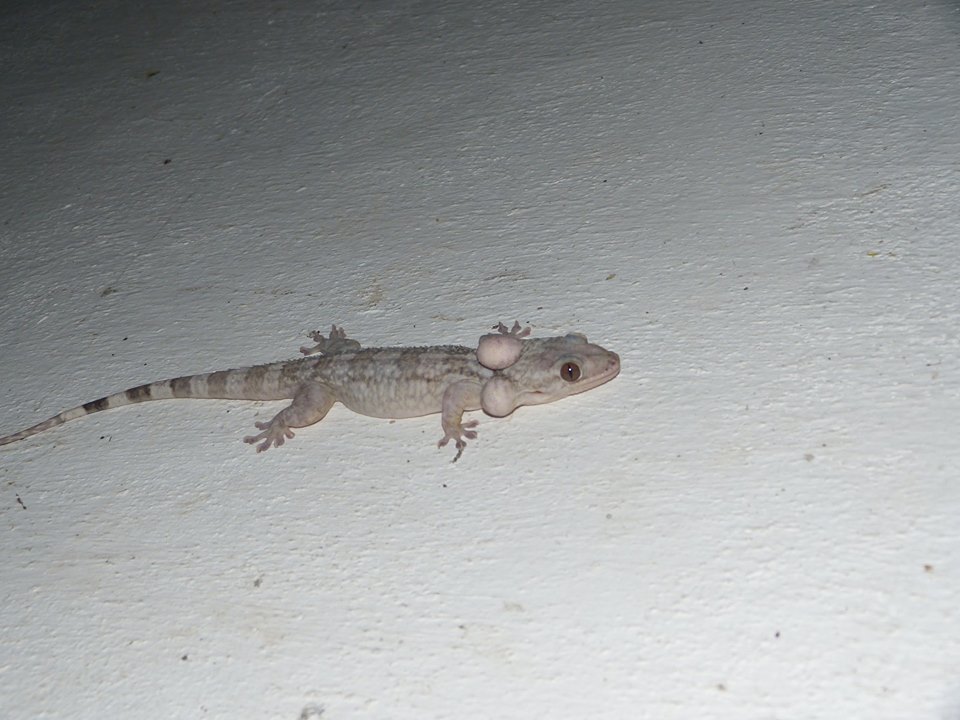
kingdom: Animalia
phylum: Chordata
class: Squamata
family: Gekkonidae
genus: Blaesodactylus
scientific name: Blaesodactylus sakalava
